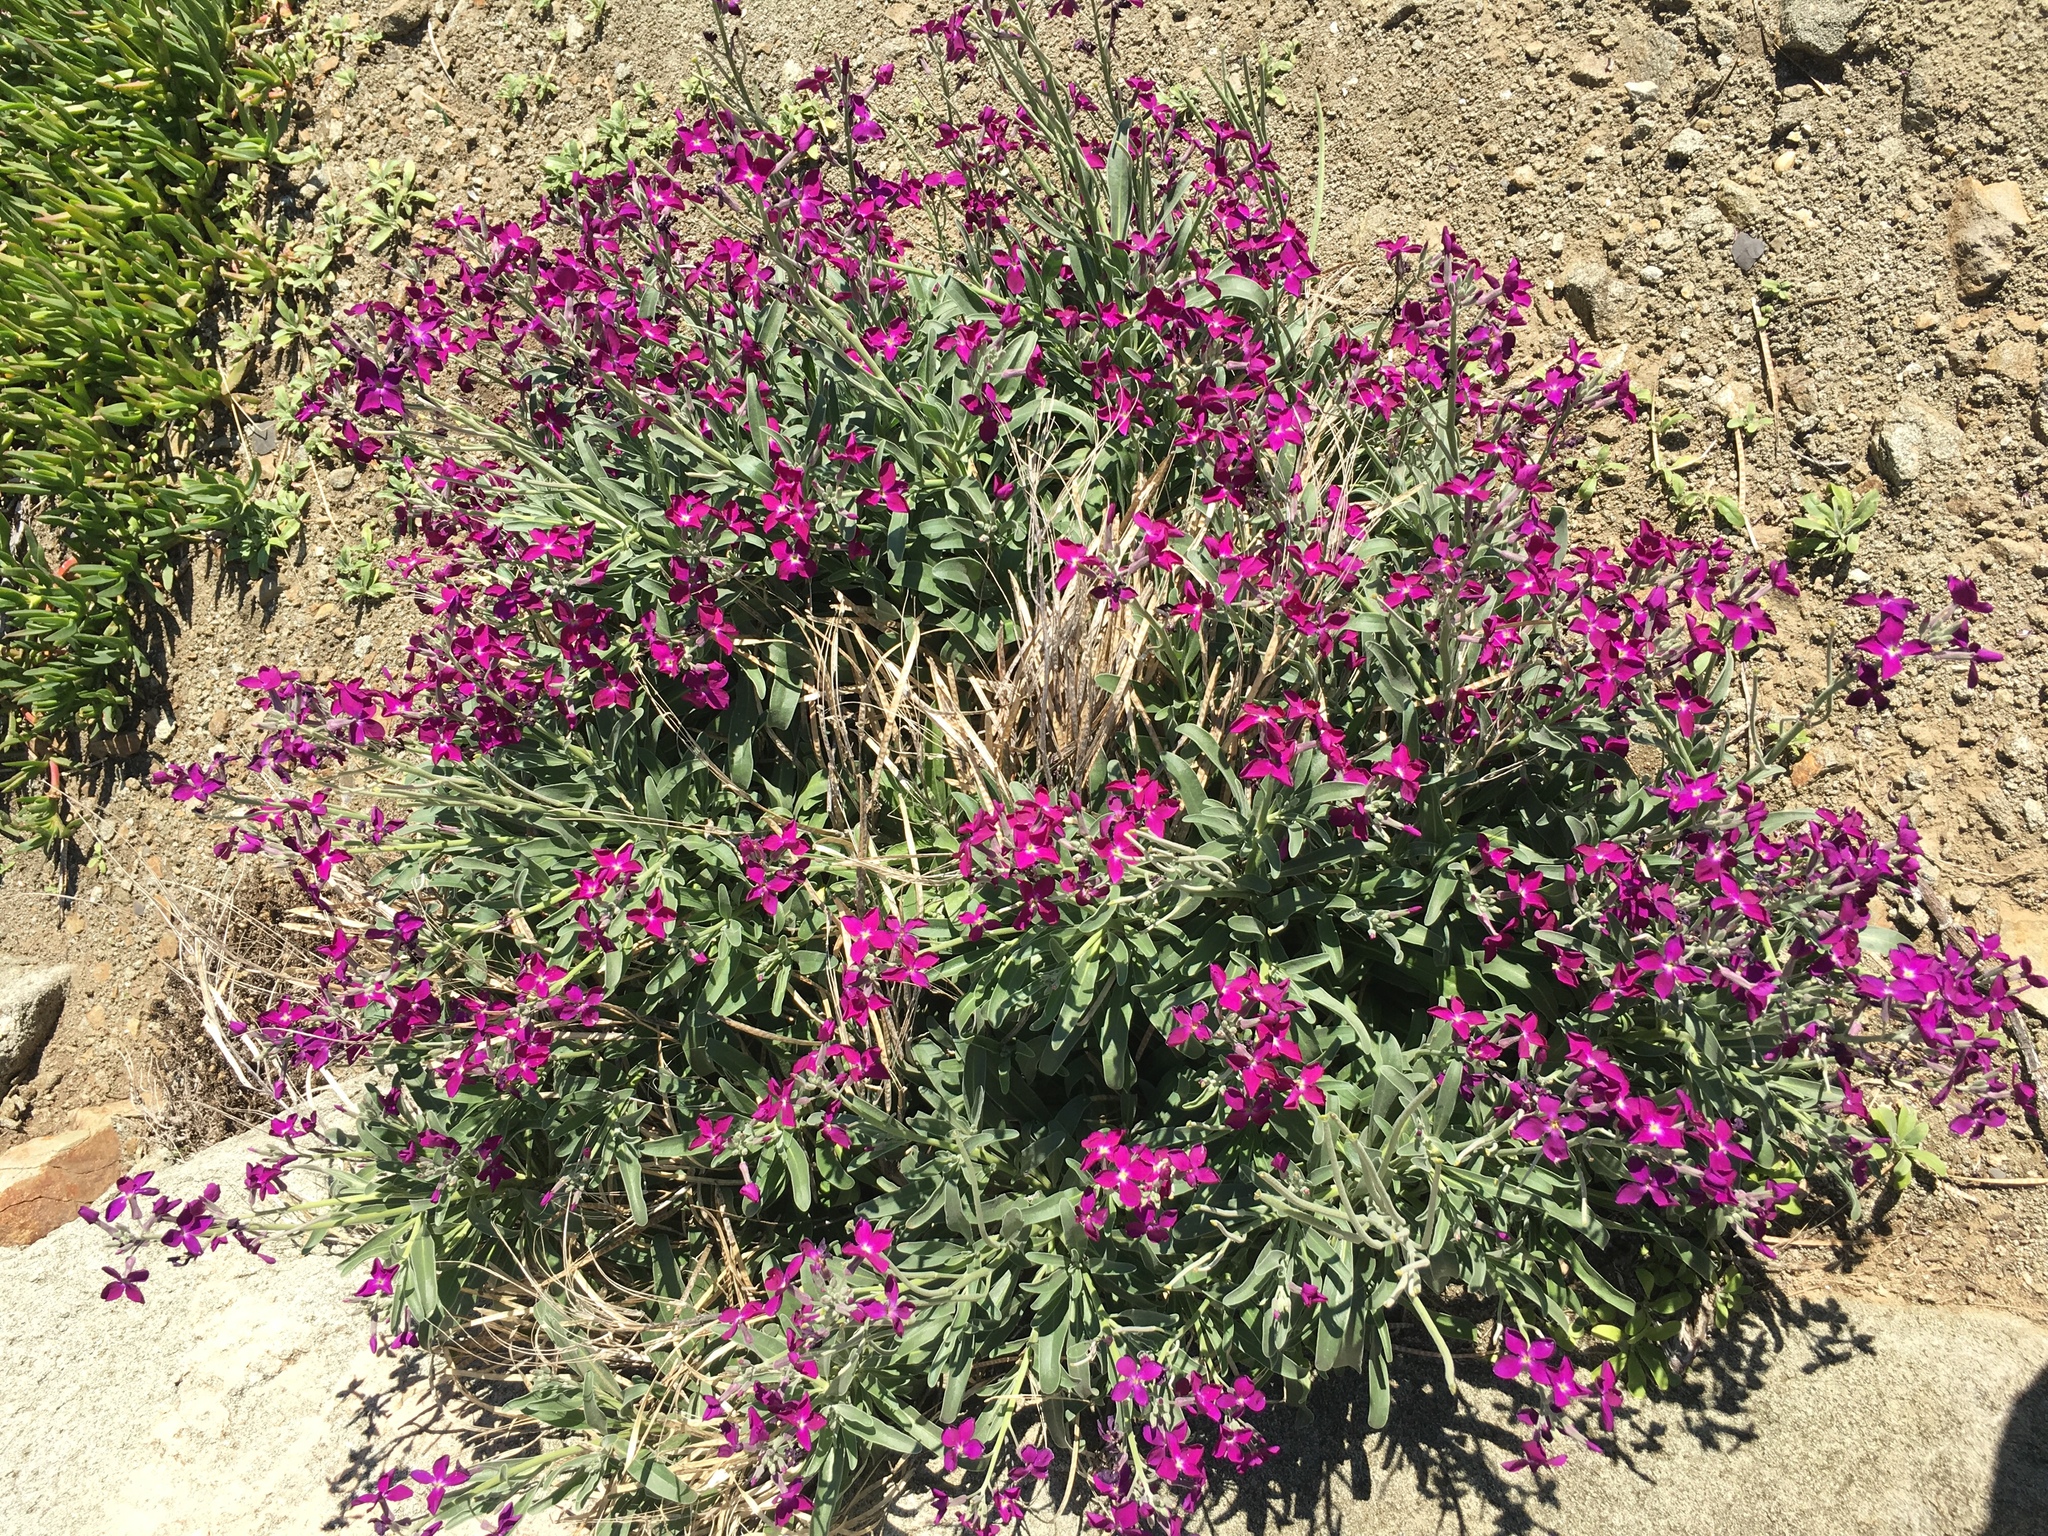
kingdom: Plantae
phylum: Tracheophyta
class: Magnoliopsida
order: Brassicales
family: Brassicaceae
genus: Matthiola
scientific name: Matthiola incana
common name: Hoary stock
